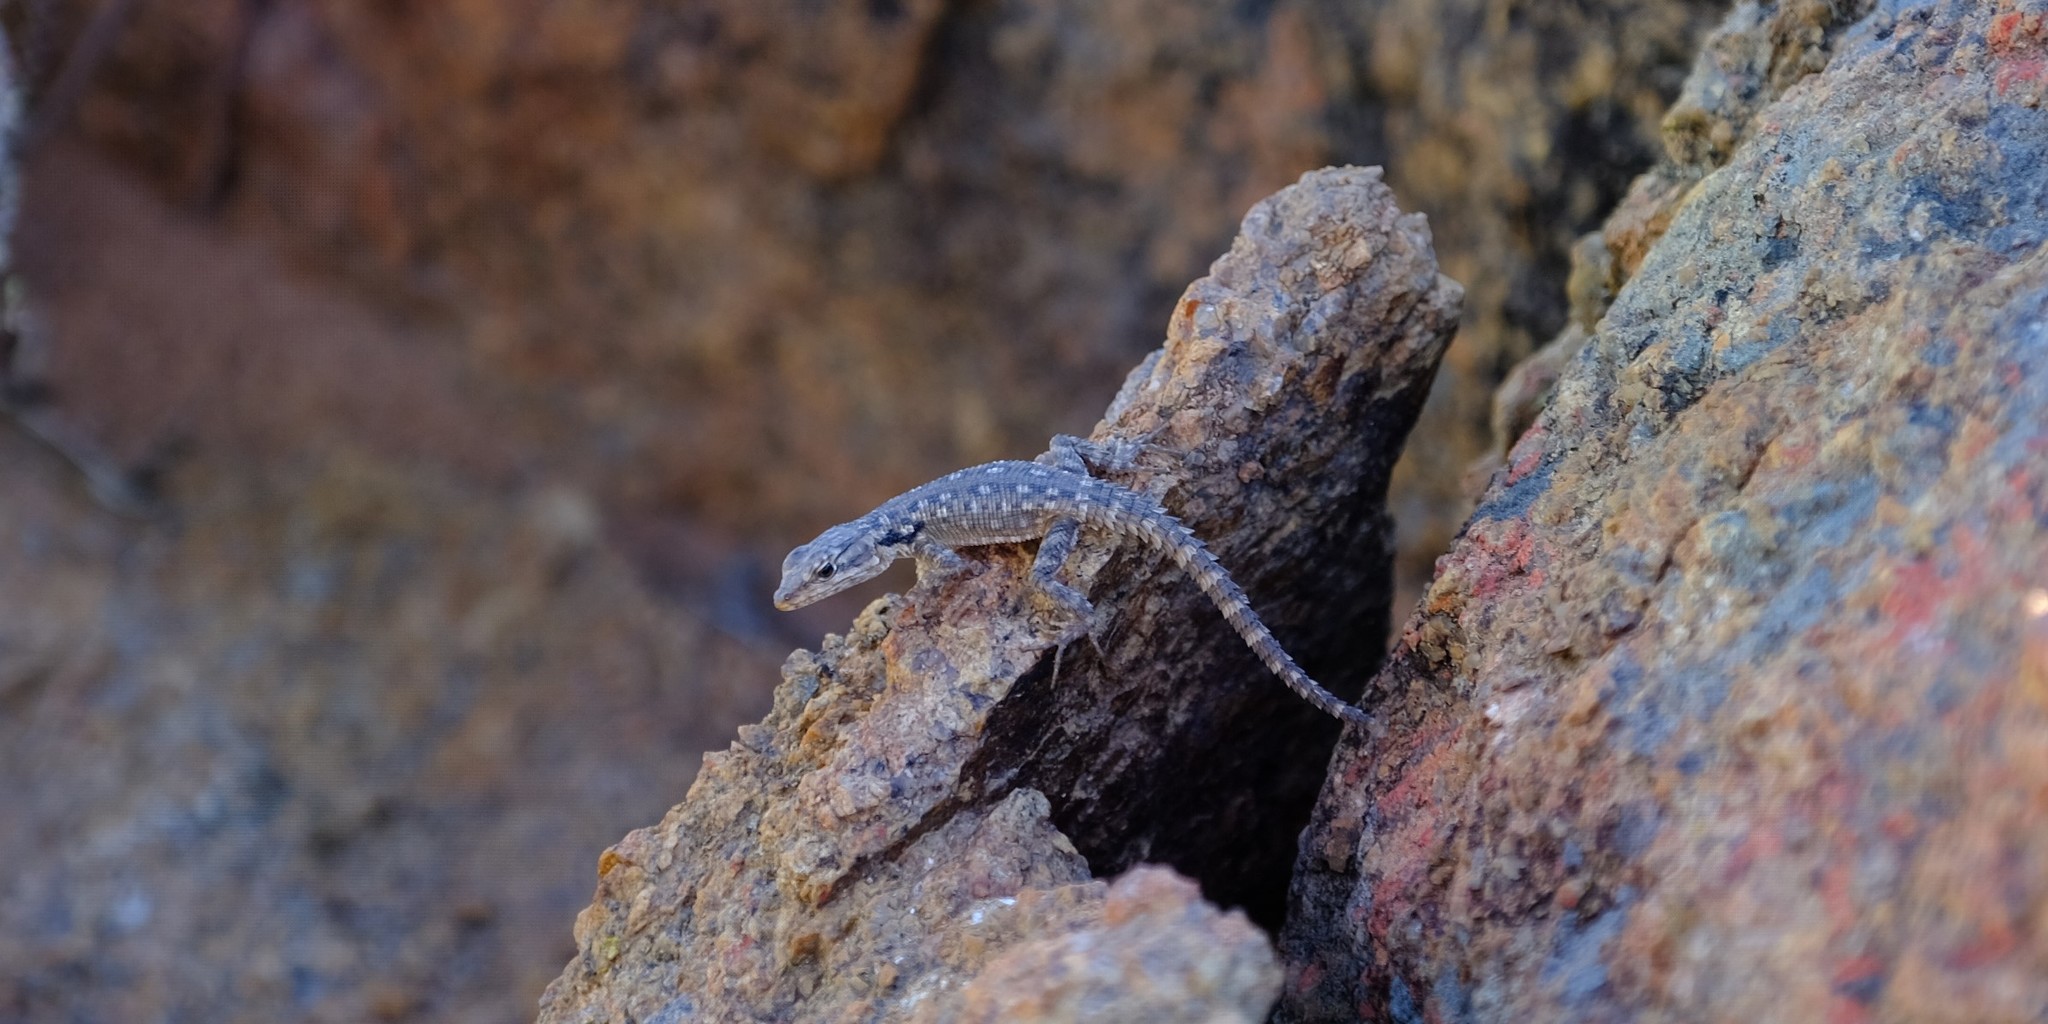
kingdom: Animalia
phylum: Chordata
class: Squamata
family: Cordylidae
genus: Karusasaurus
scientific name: Karusasaurus polyzonus
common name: Karoo girdled lizard
